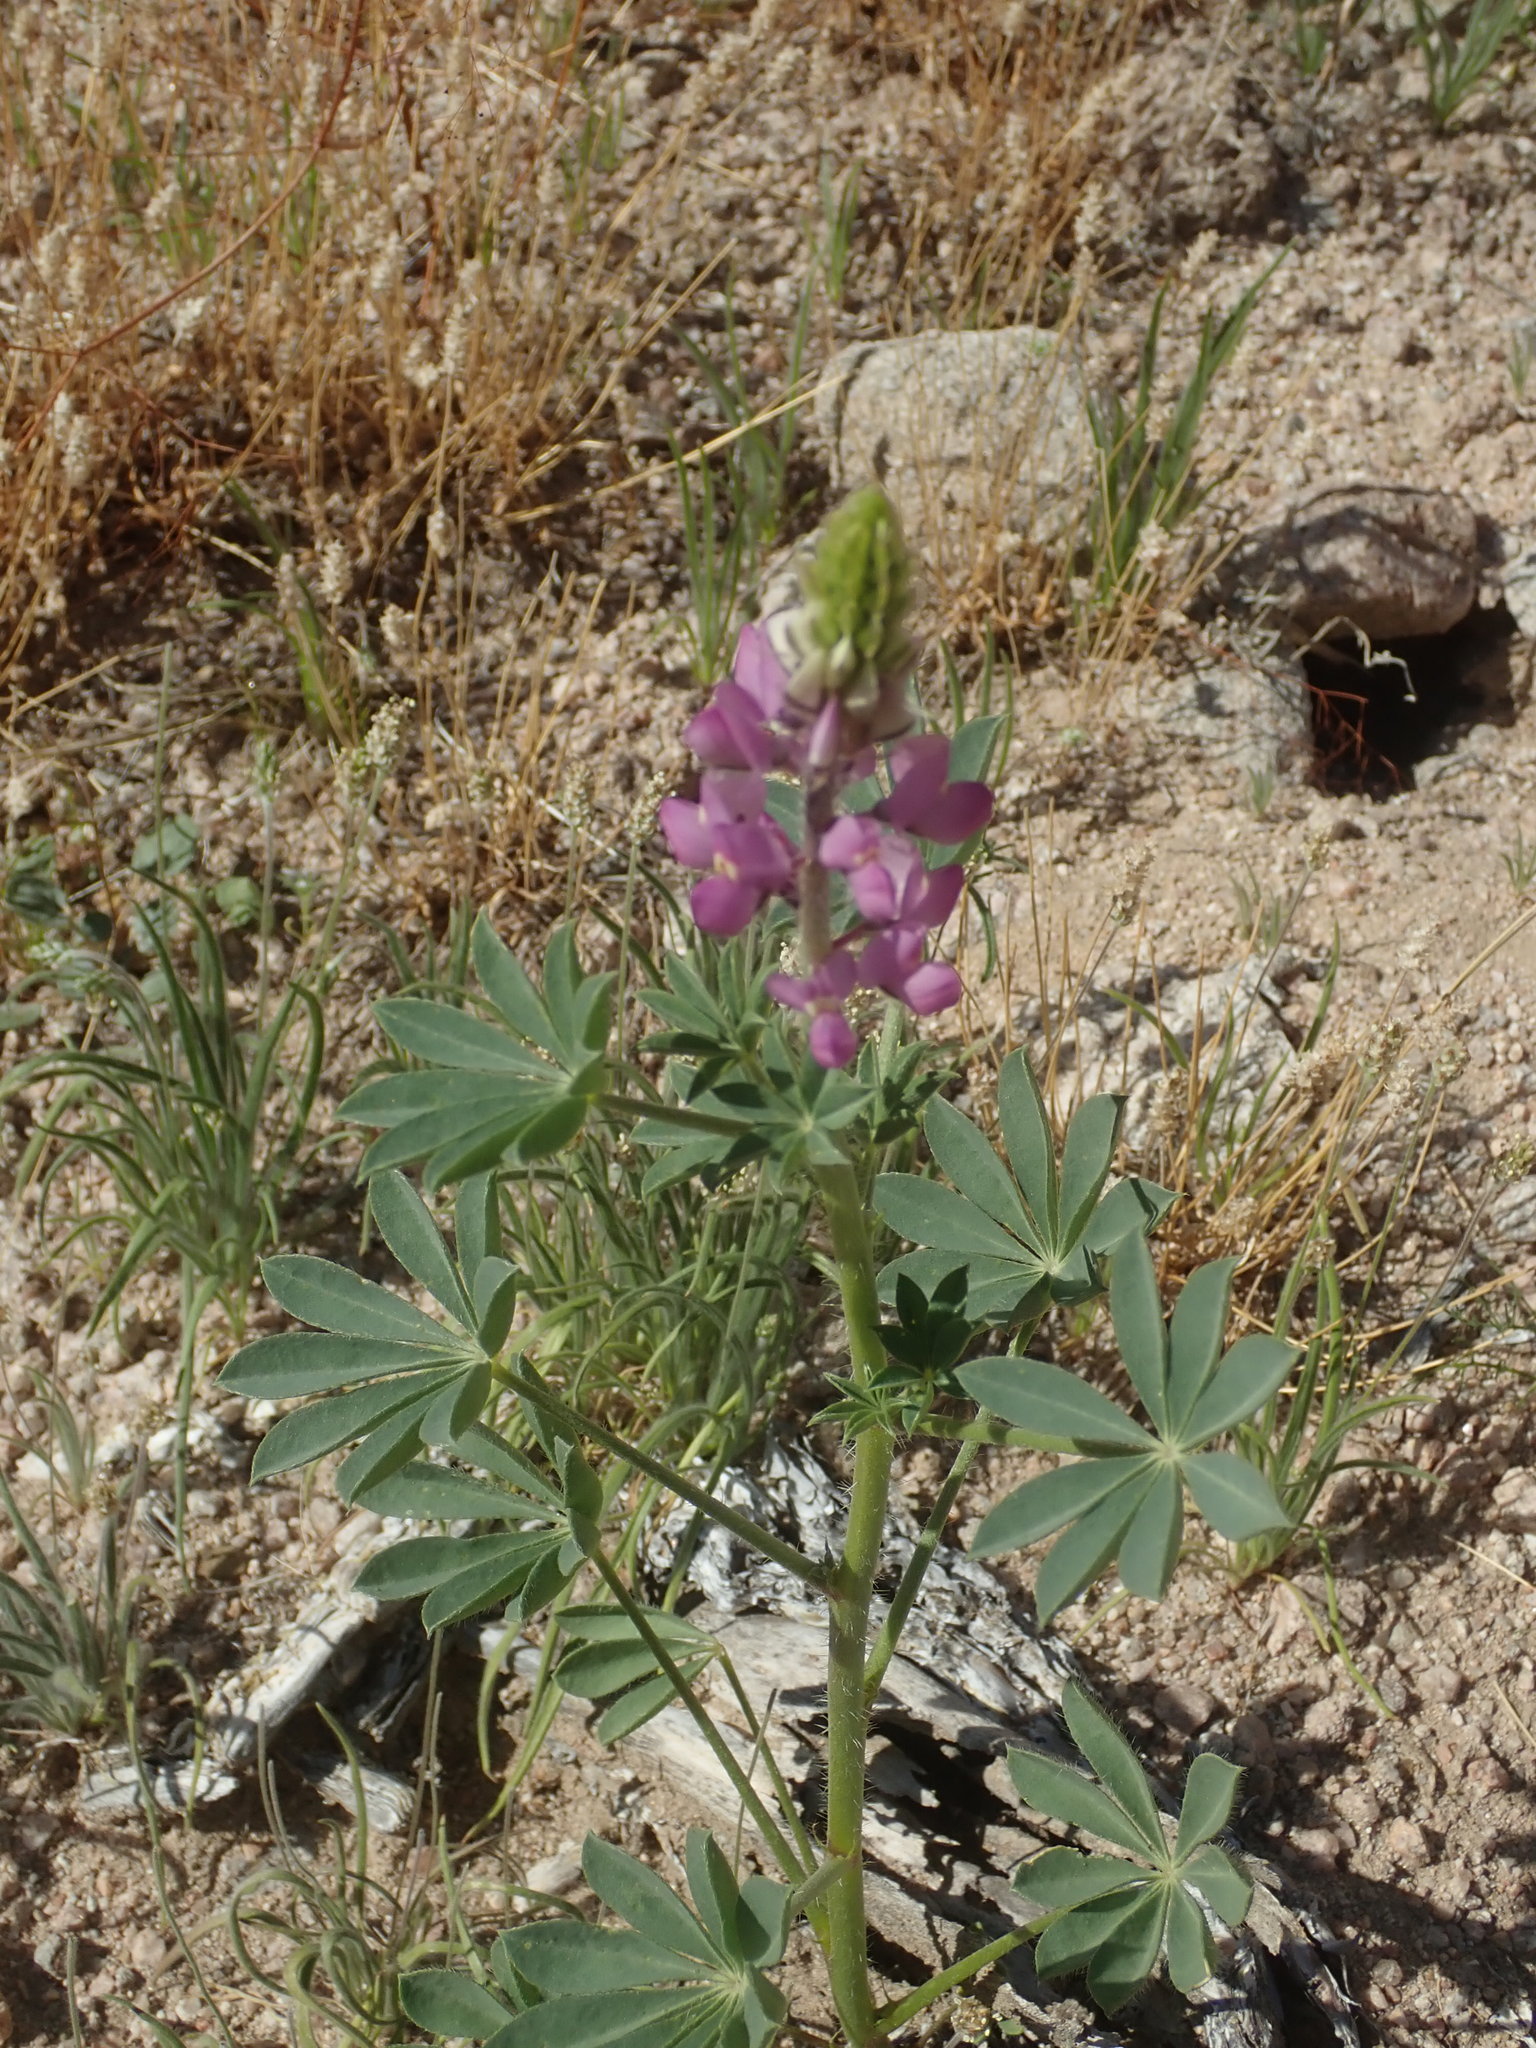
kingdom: Plantae
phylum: Tracheophyta
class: Magnoliopsida
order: Fabales
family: Fabaceae
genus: Lupinus
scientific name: Lupinus arizonicus
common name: Arizona lupine
